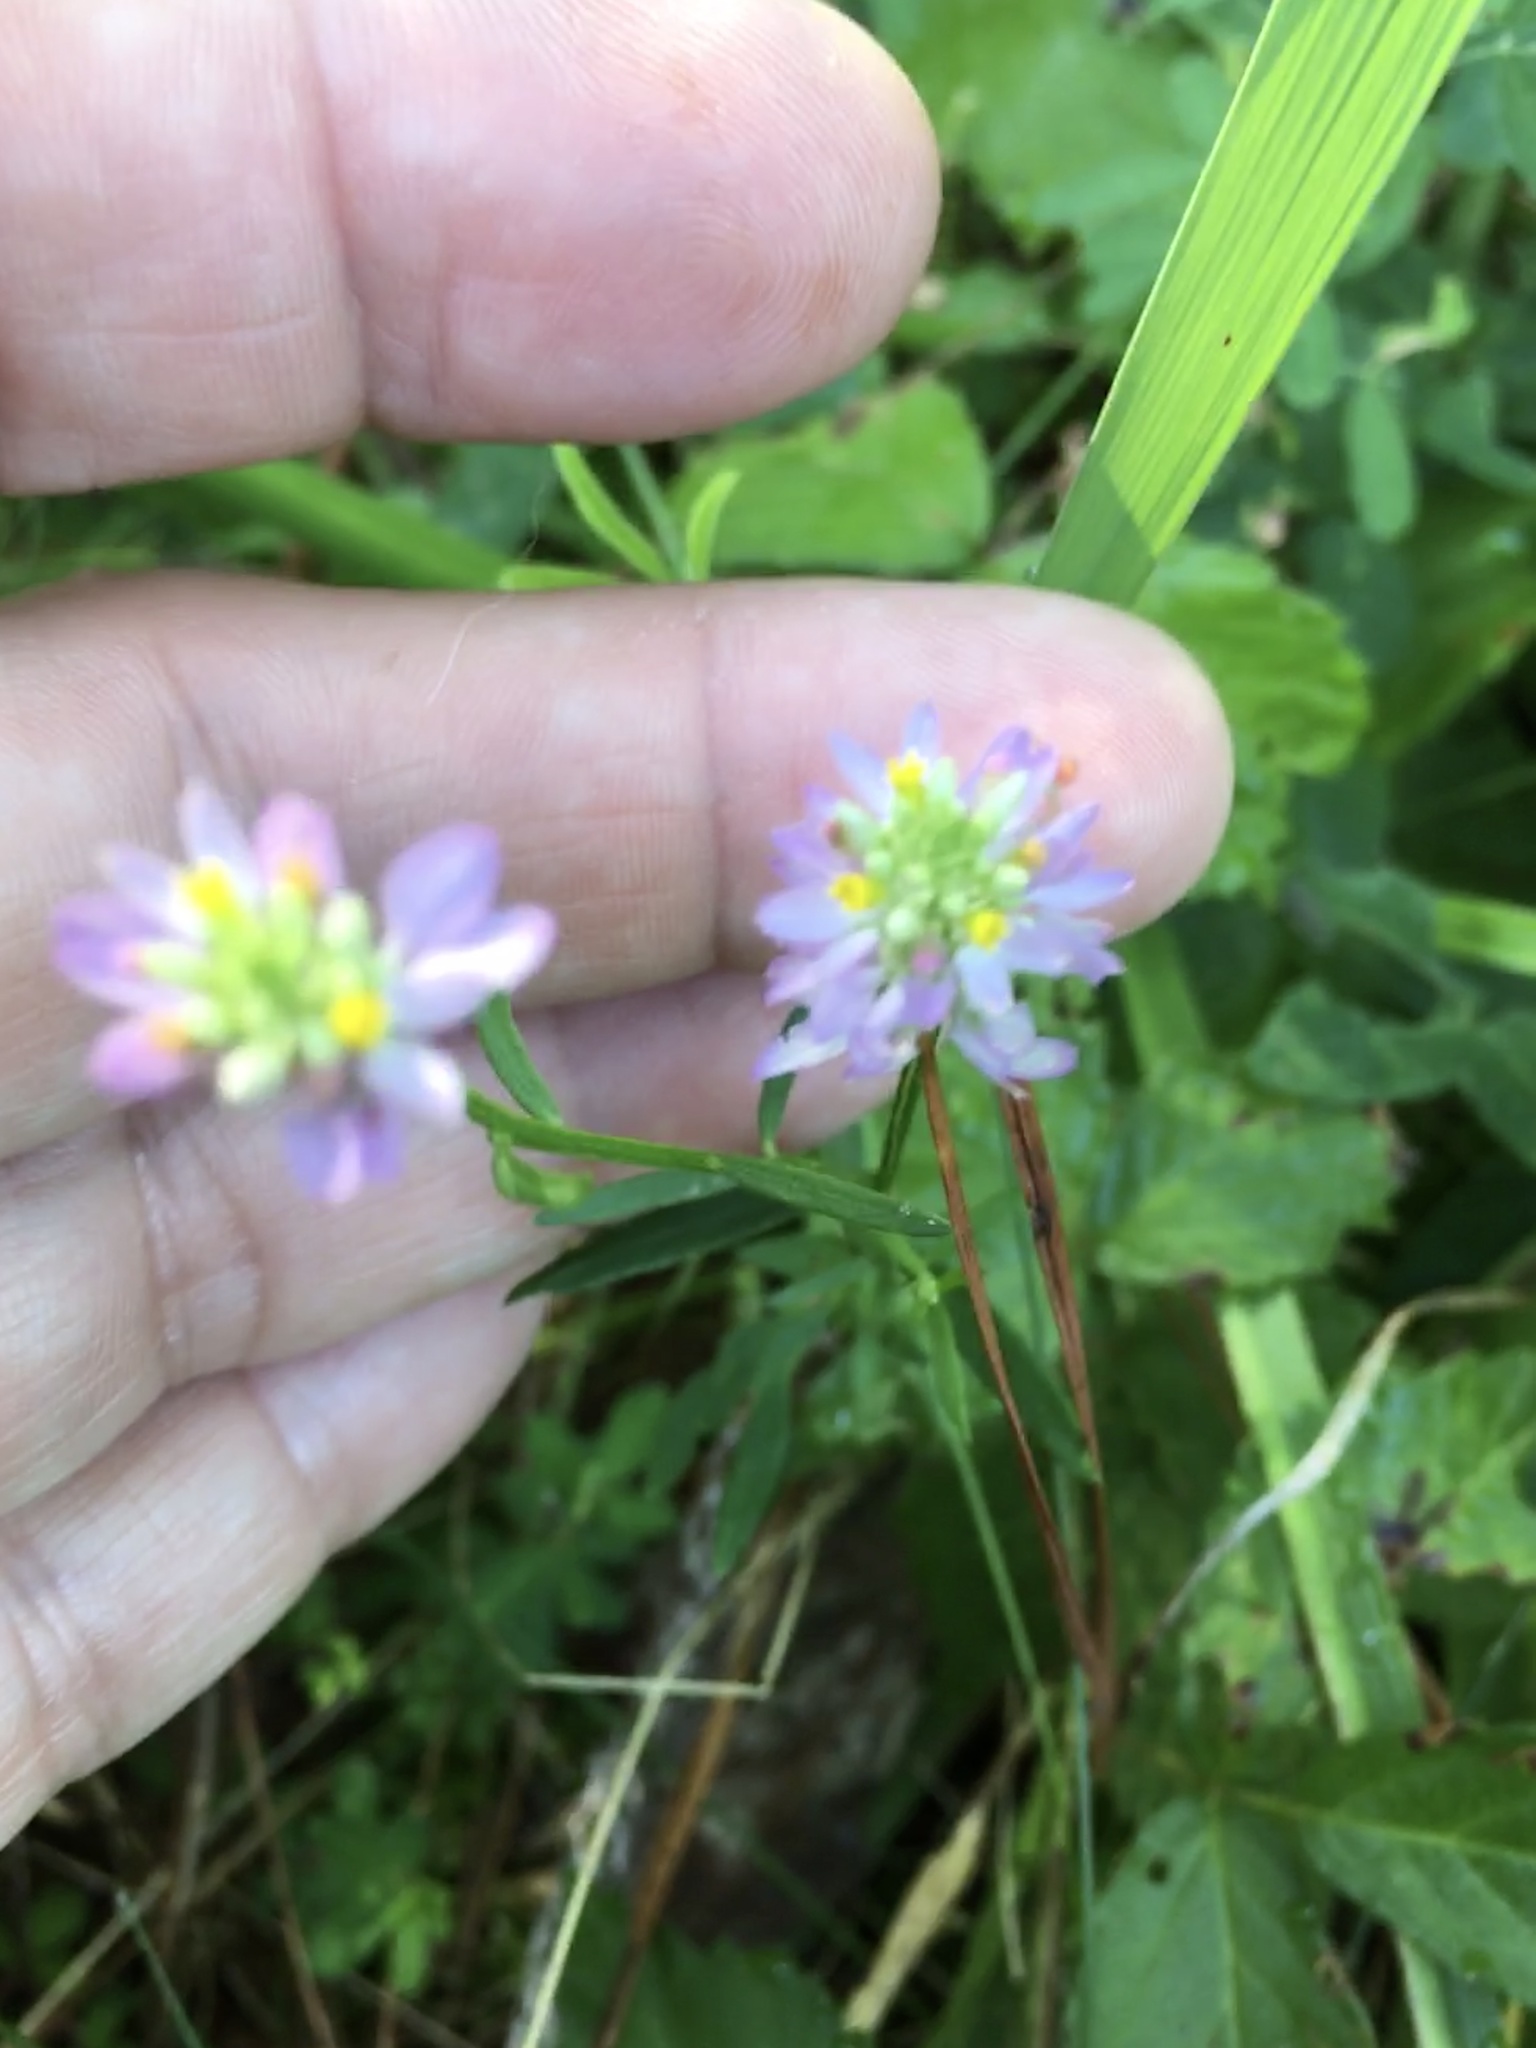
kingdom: Plantae
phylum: Tracheophyta
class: Magnoliopsida
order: Fabales
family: Polygalaceae
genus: Polygala
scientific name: Polygala curtissii
